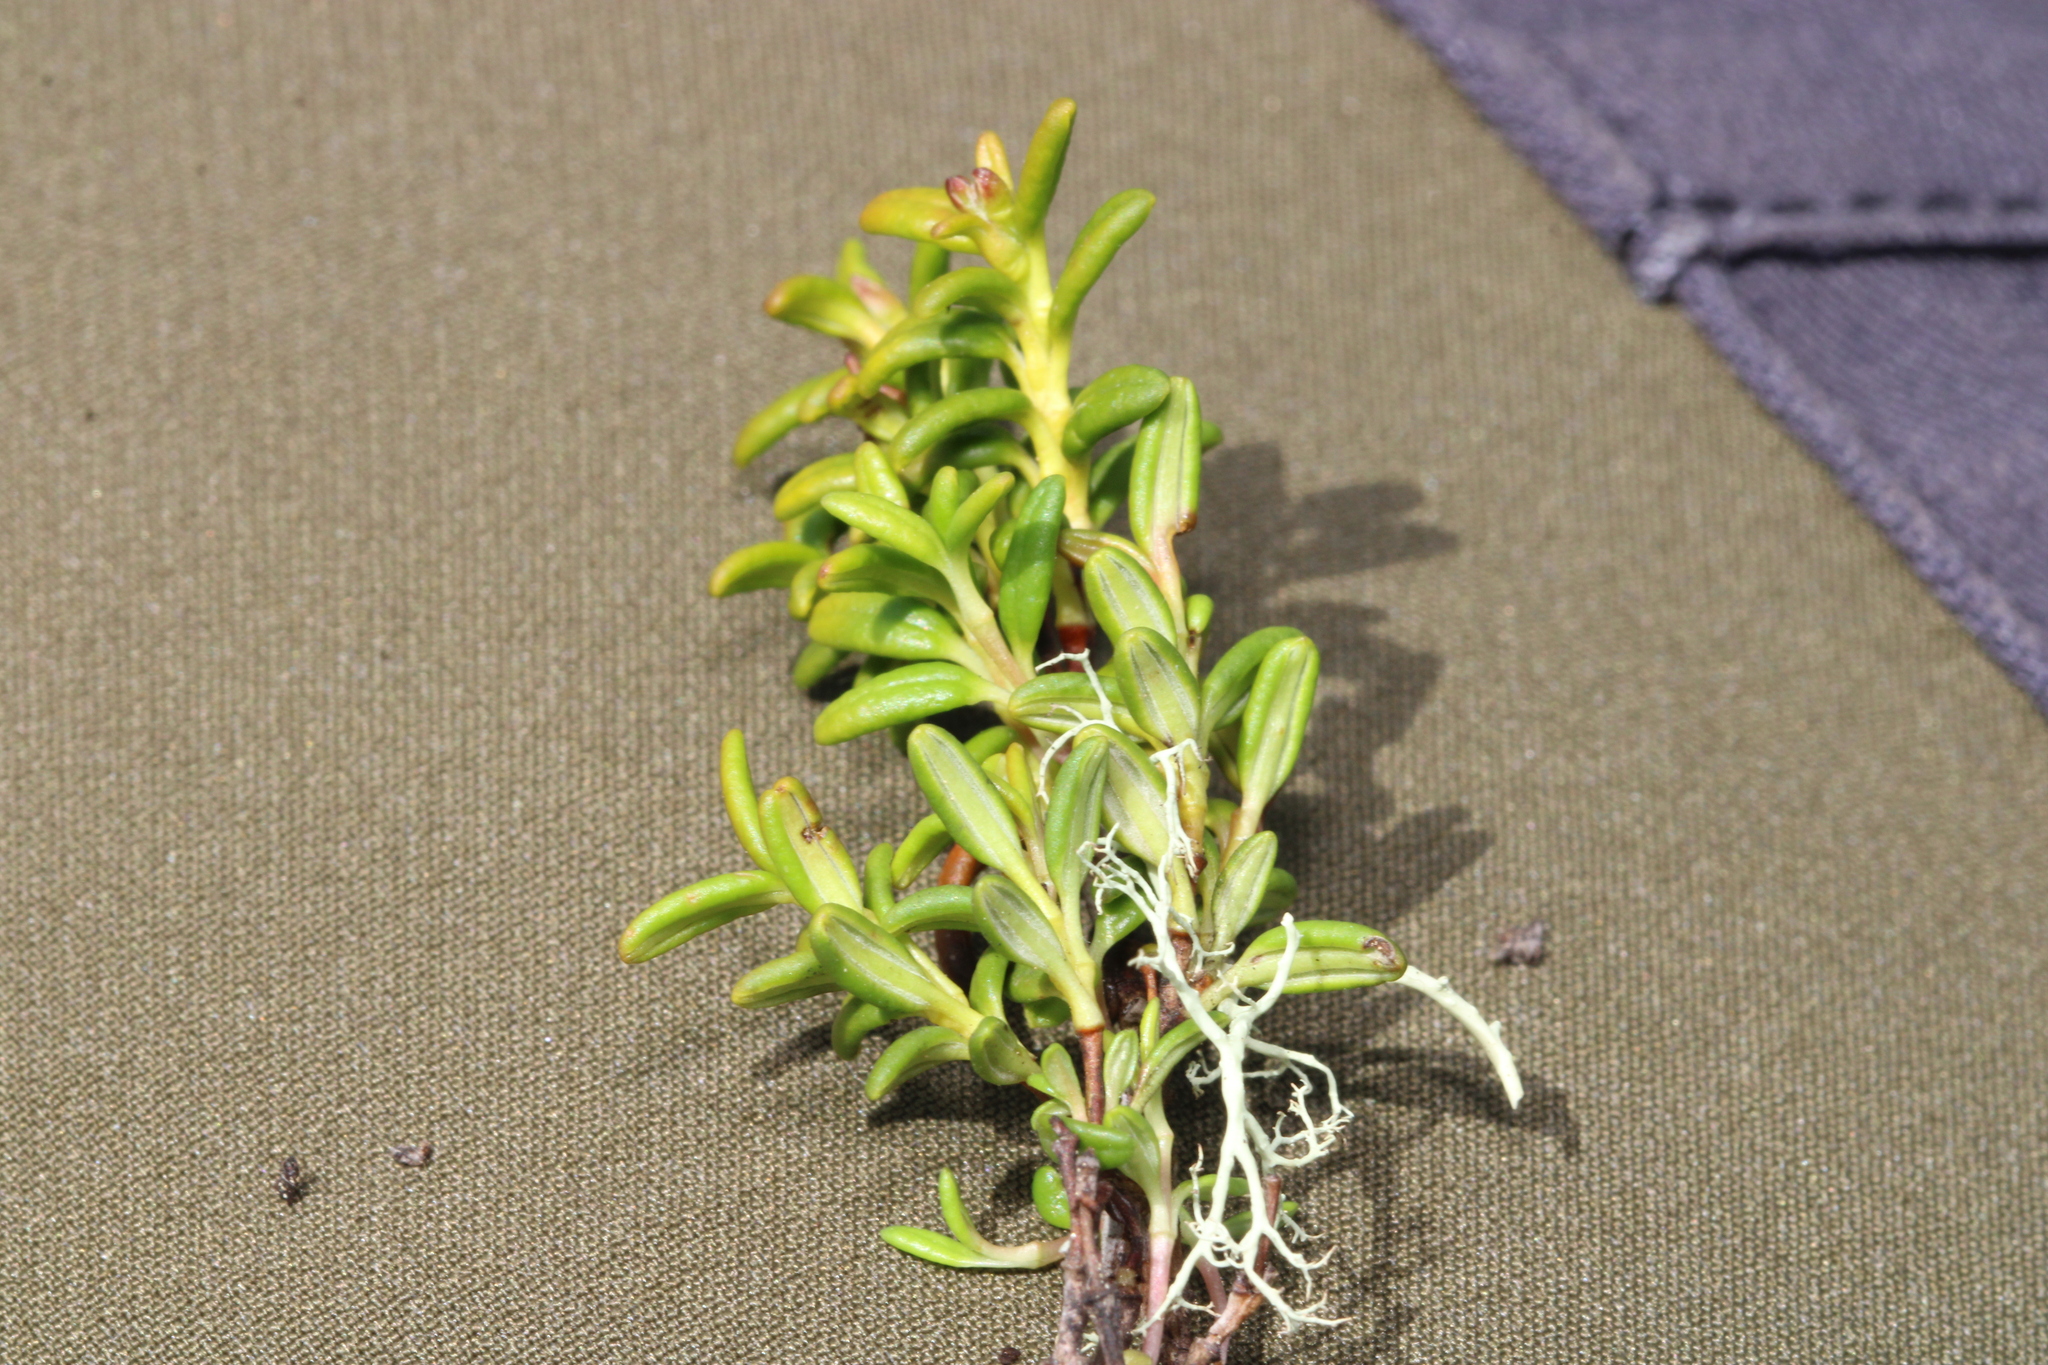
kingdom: Plantae
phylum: Tracheophyta
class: Magnoliopsida
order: Ericales
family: Ericaceae
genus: Kalmia
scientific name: Kalmia procumbens
